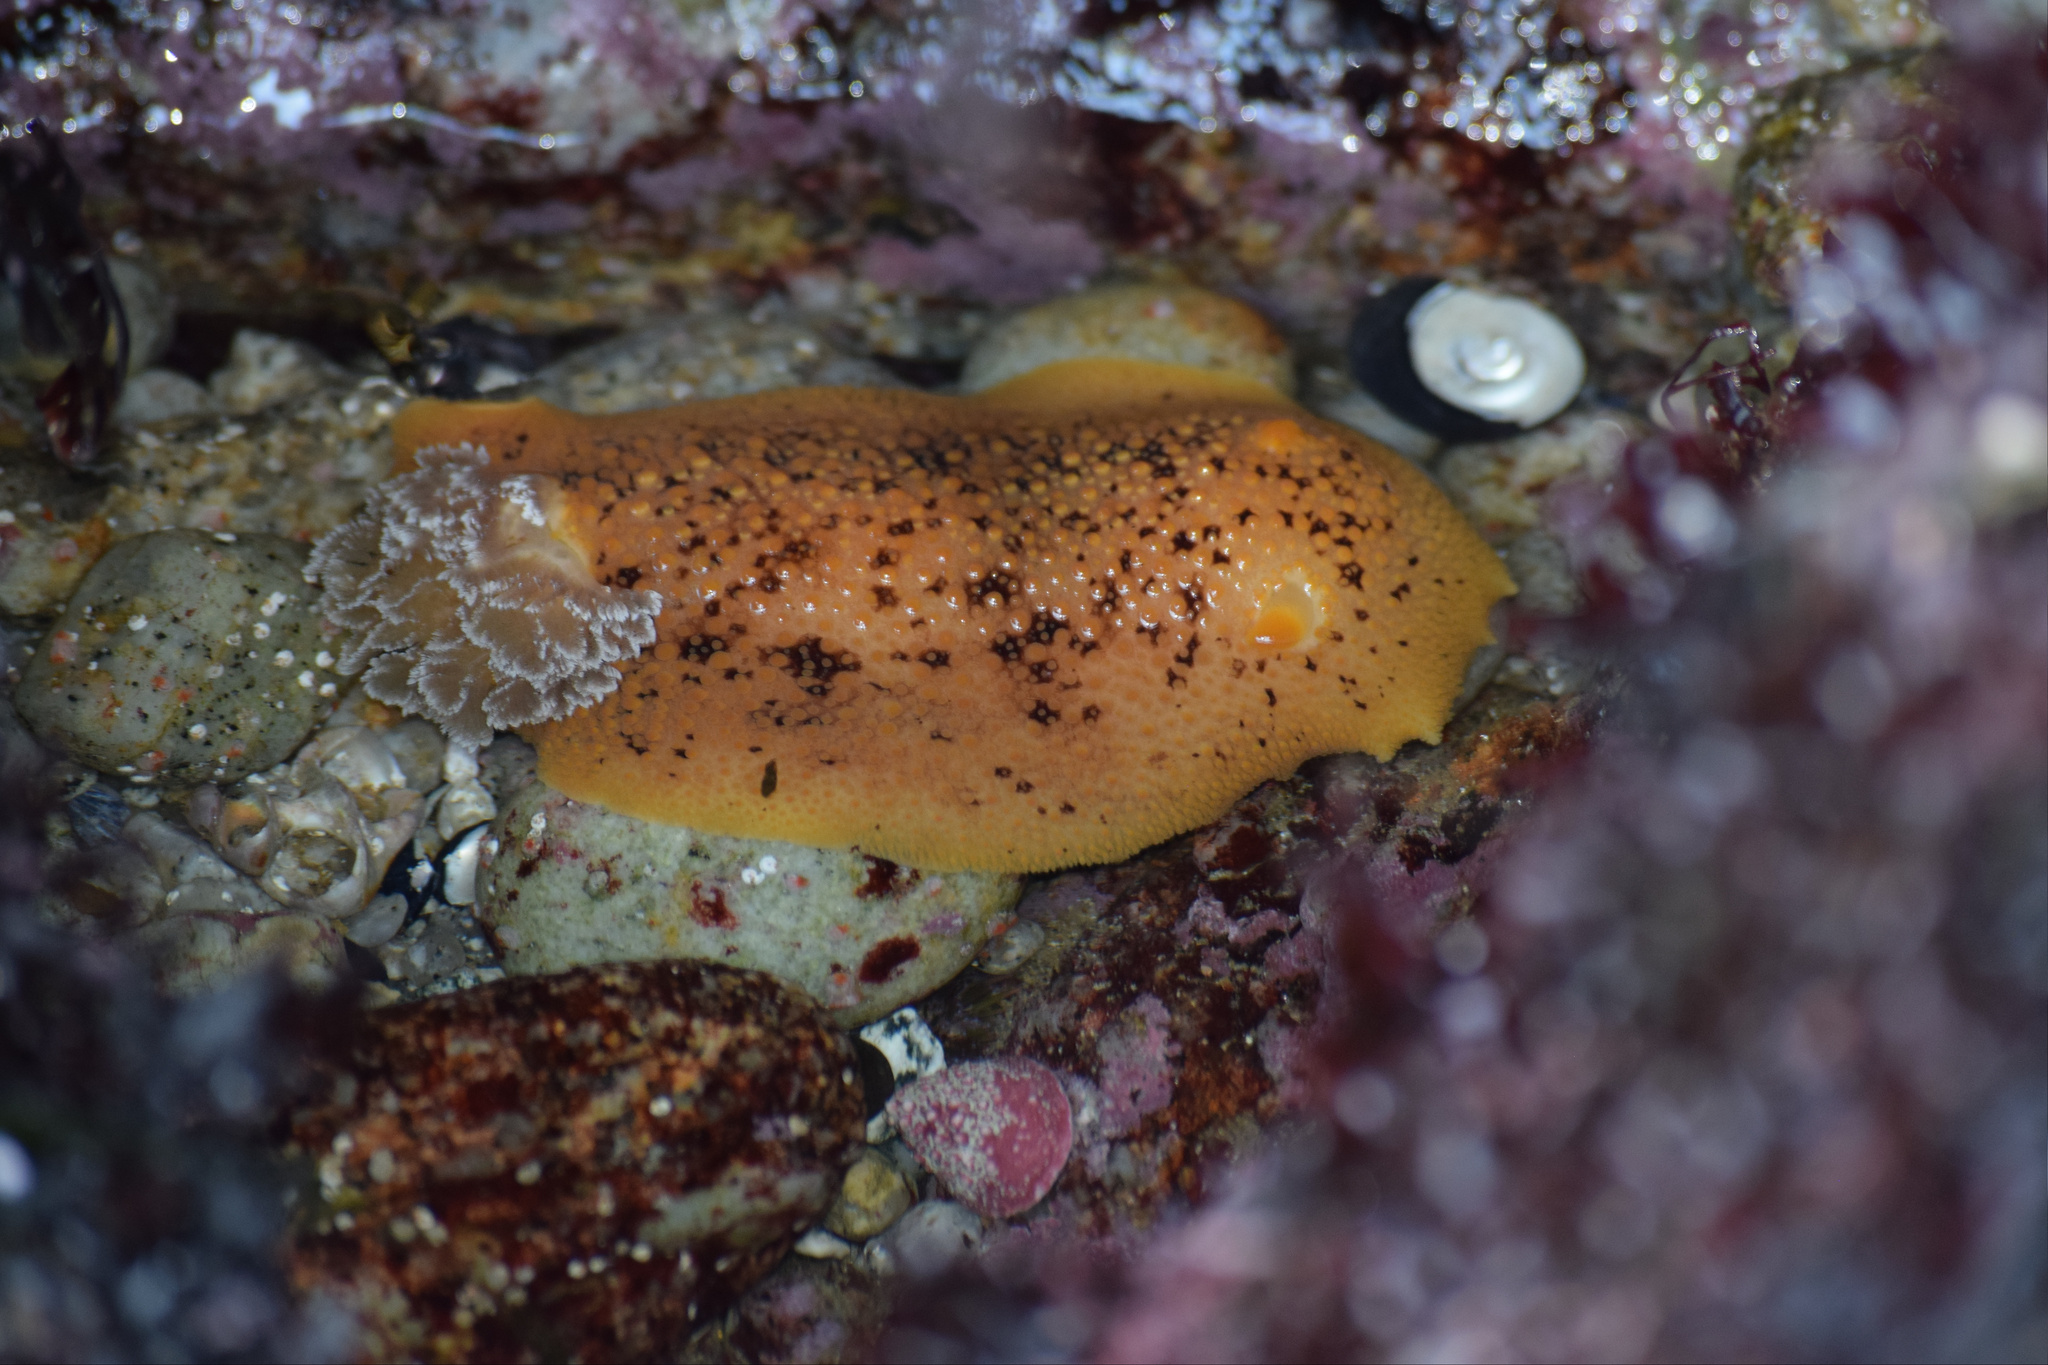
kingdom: Animalia
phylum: Mollusca
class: Gastropoda
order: Nudibranchia
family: Discodorididae
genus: Peltodoris
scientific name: Peltodoris nobilis
